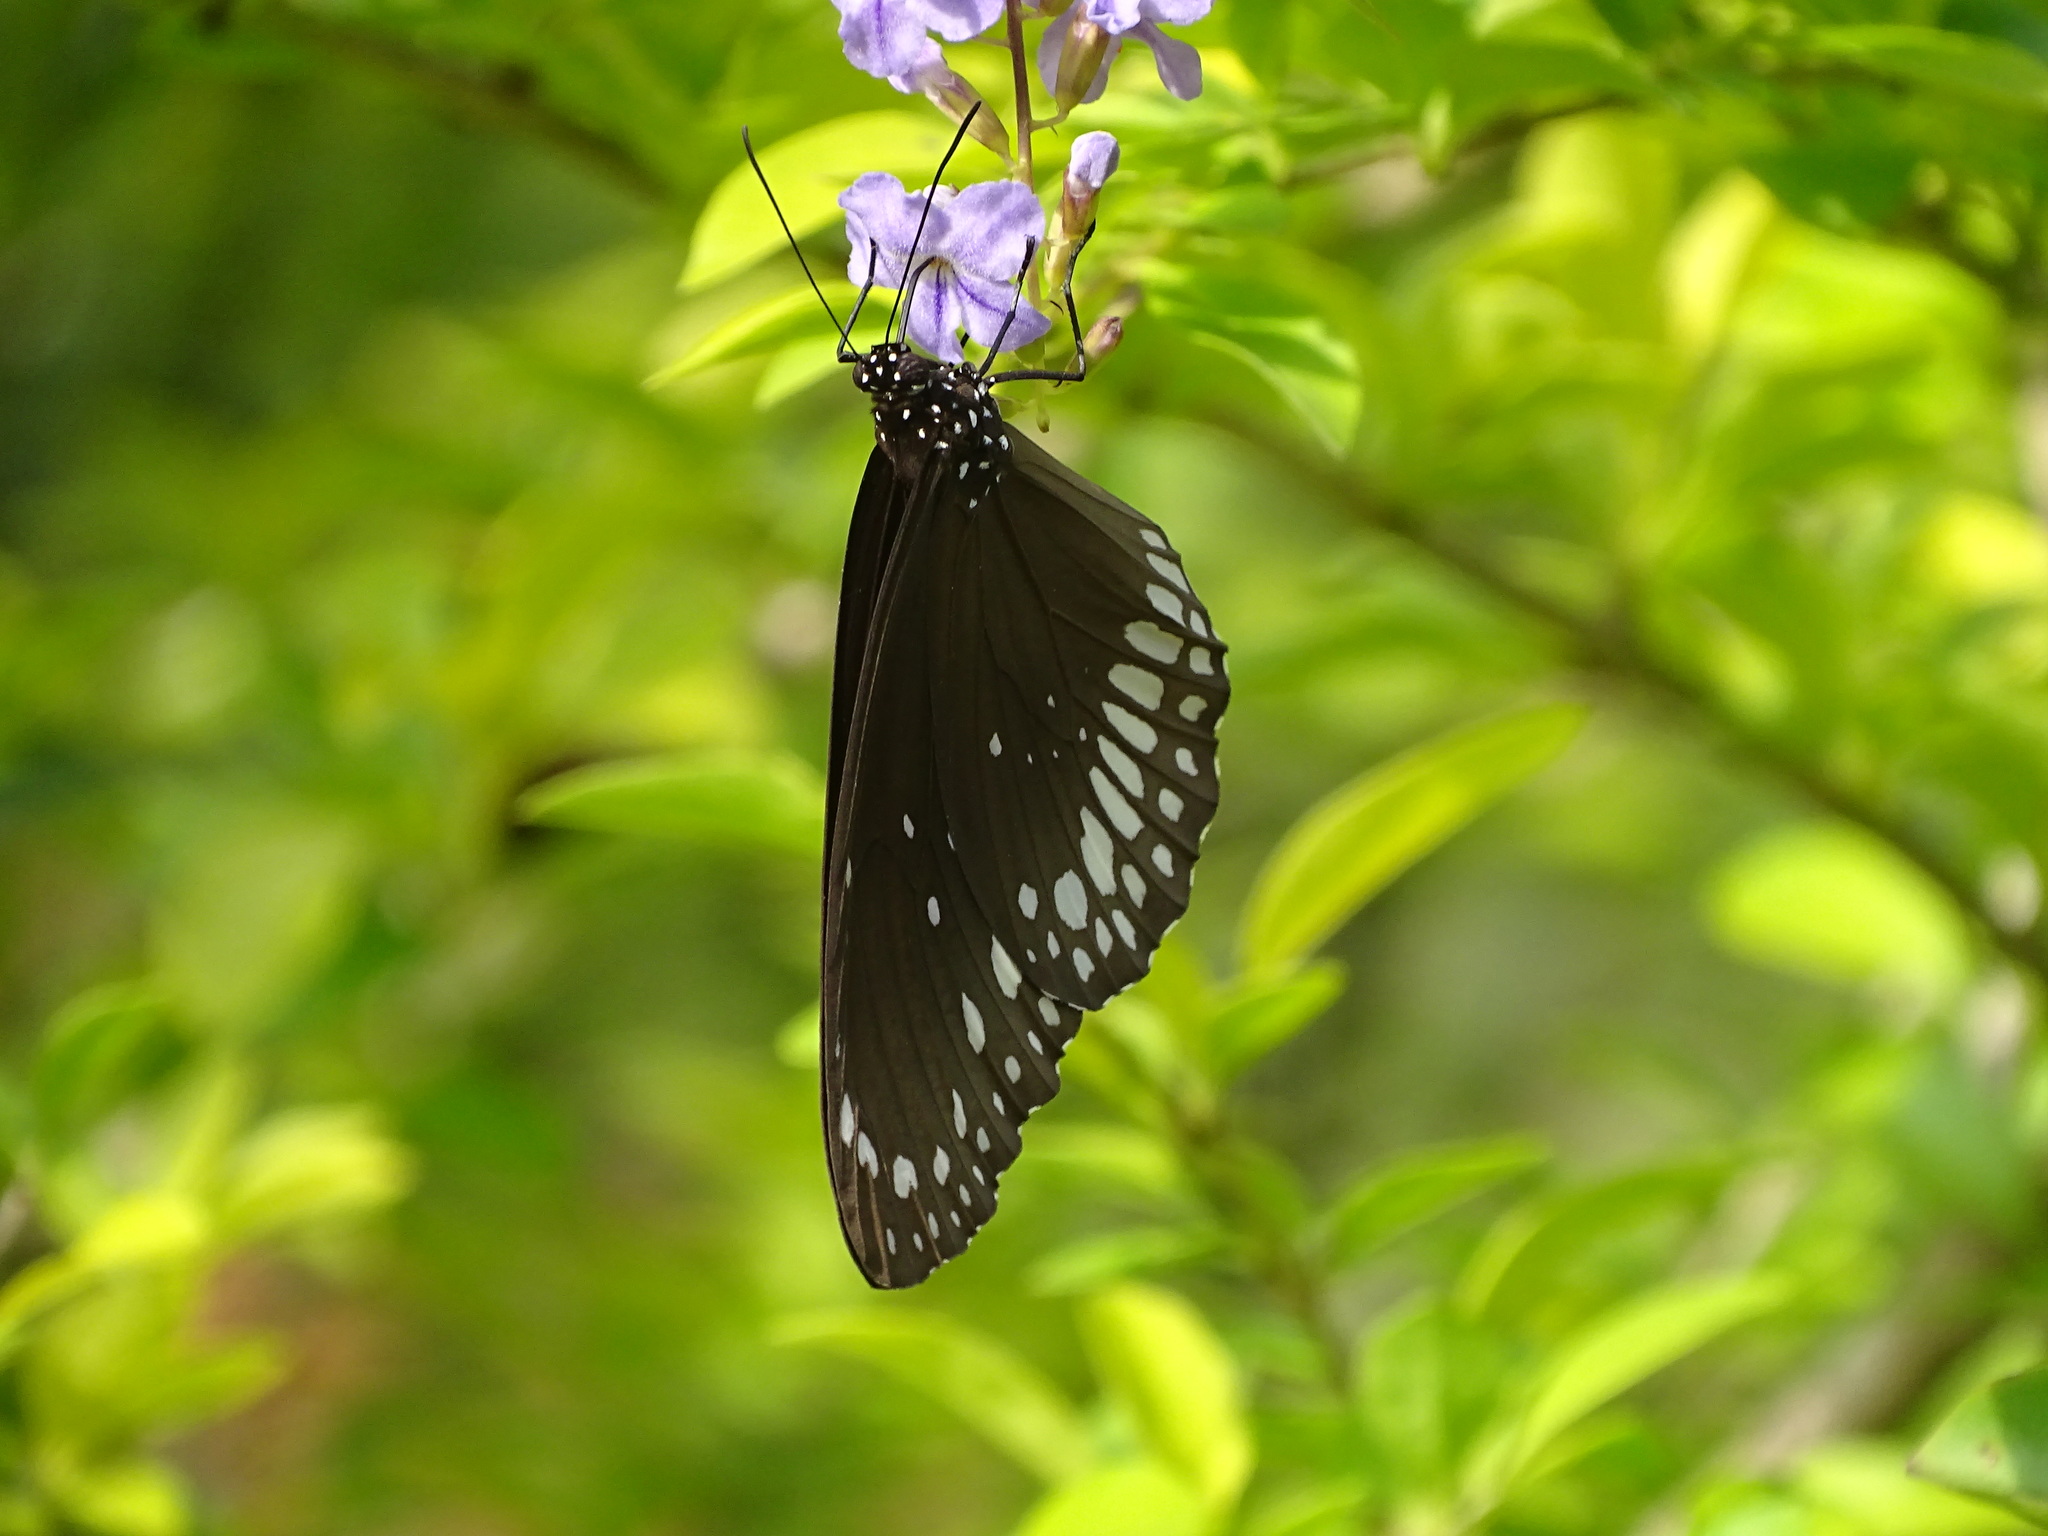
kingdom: Animalia
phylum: Arthropoda
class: Insecta
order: Lepidoptera
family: Nymphalidae
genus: Euploea
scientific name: Euploea core
